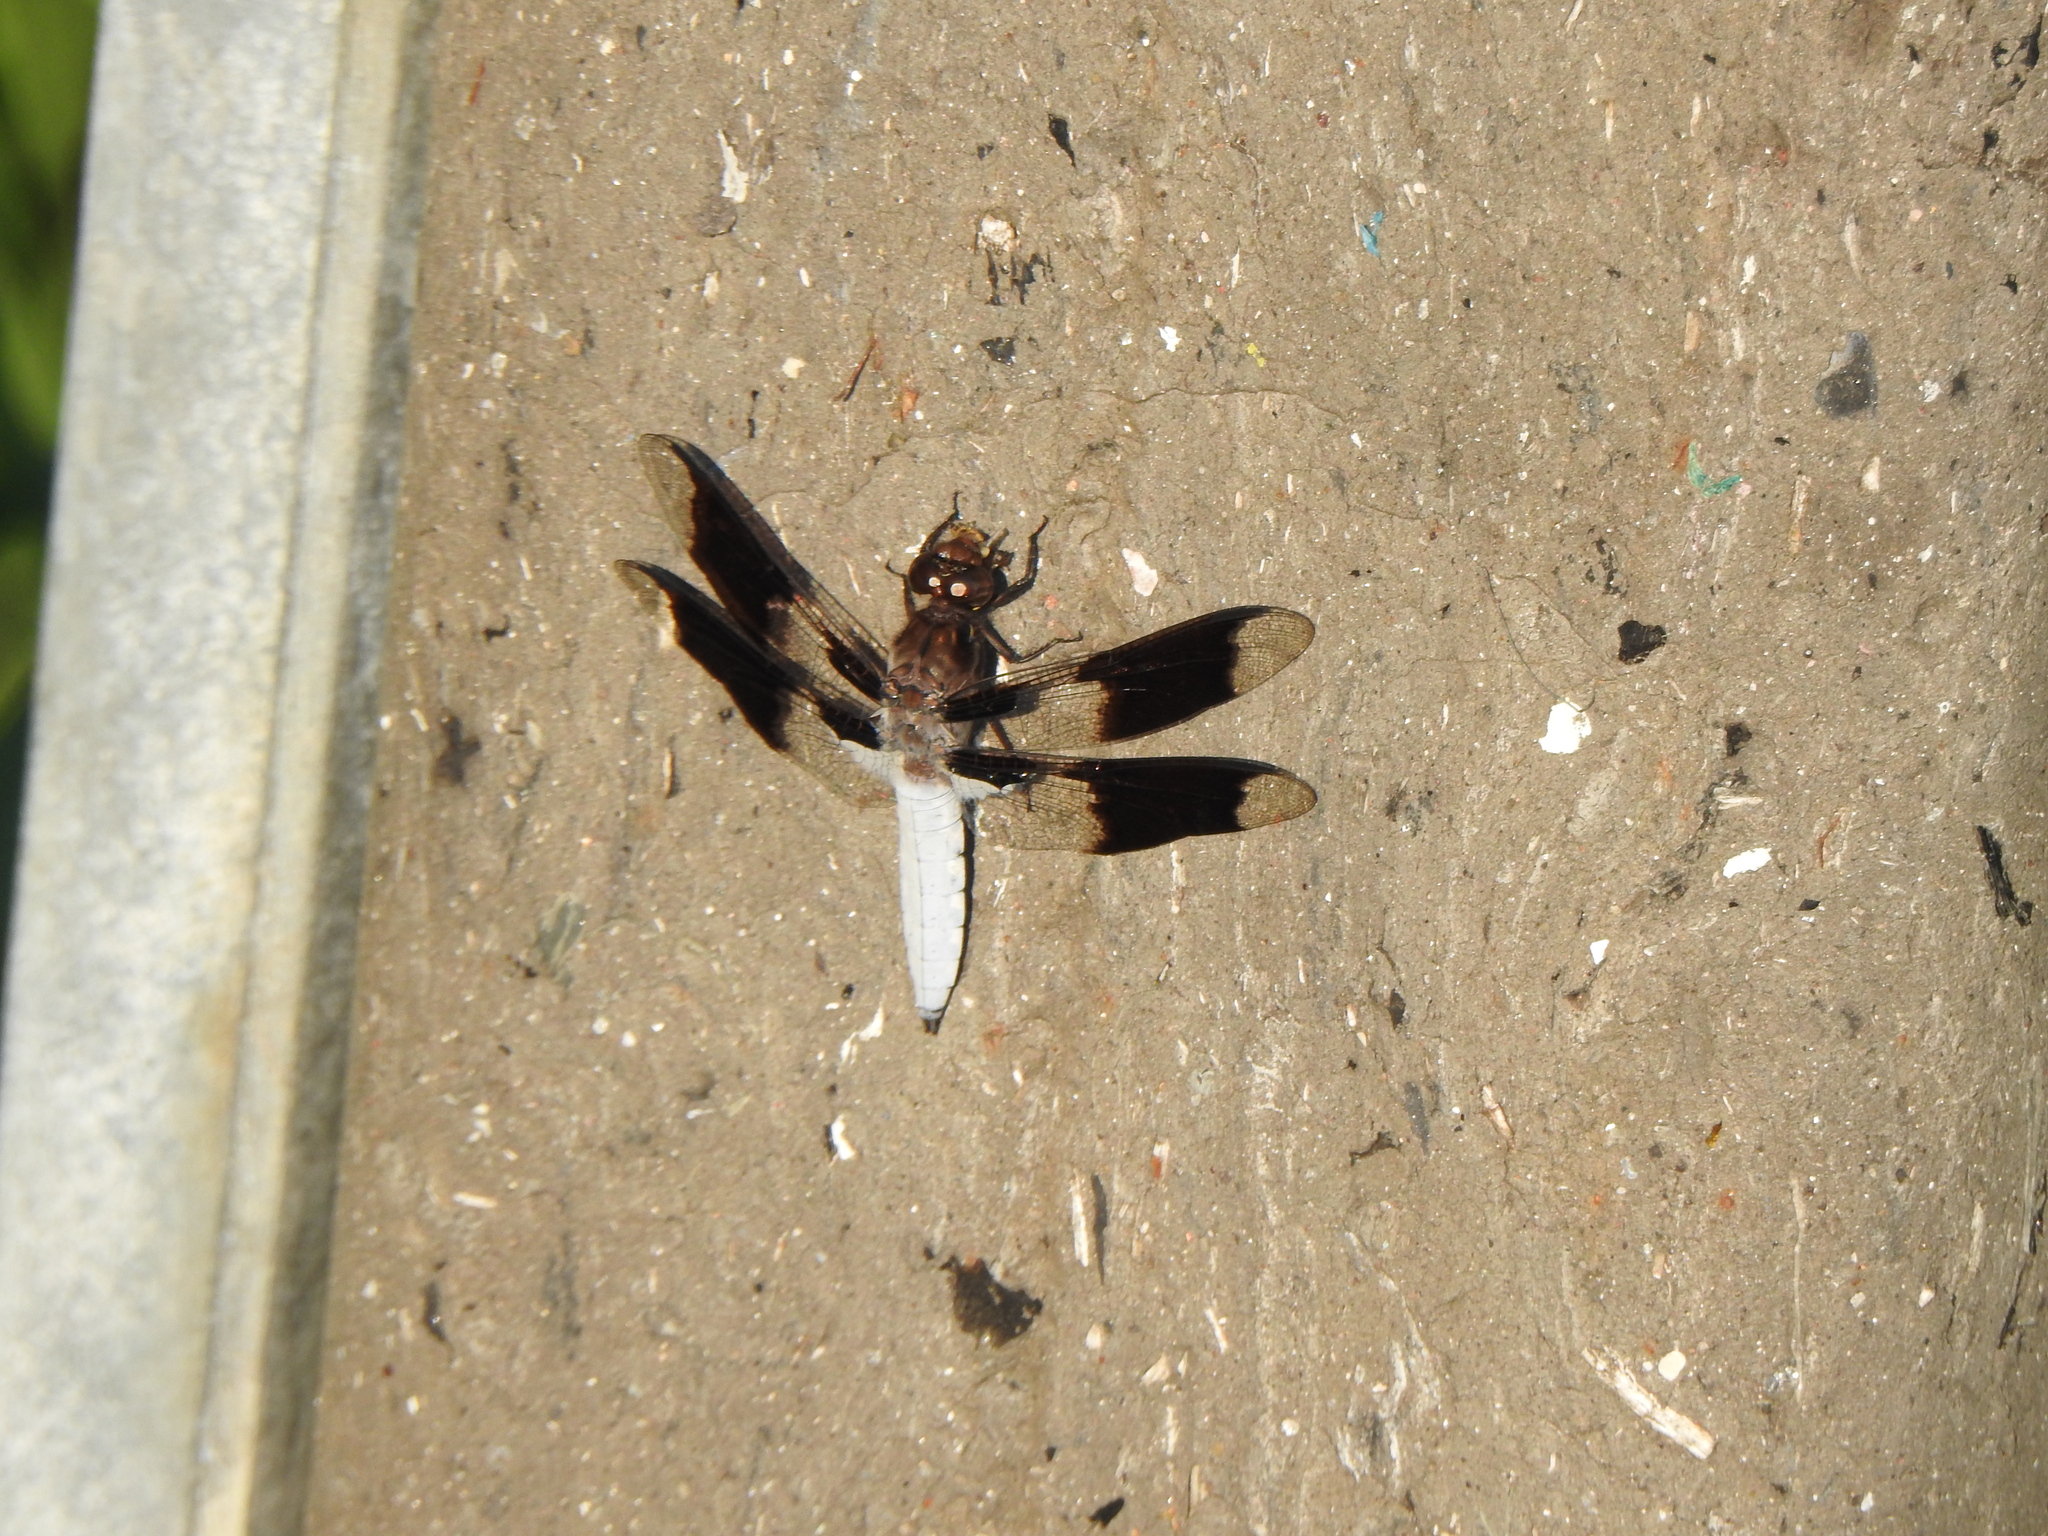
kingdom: Animalia
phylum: Arthropoda
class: Insecta
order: Odonata
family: Libellulidae
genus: Plathemis
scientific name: Plathemis lydia
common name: Common whitetail
